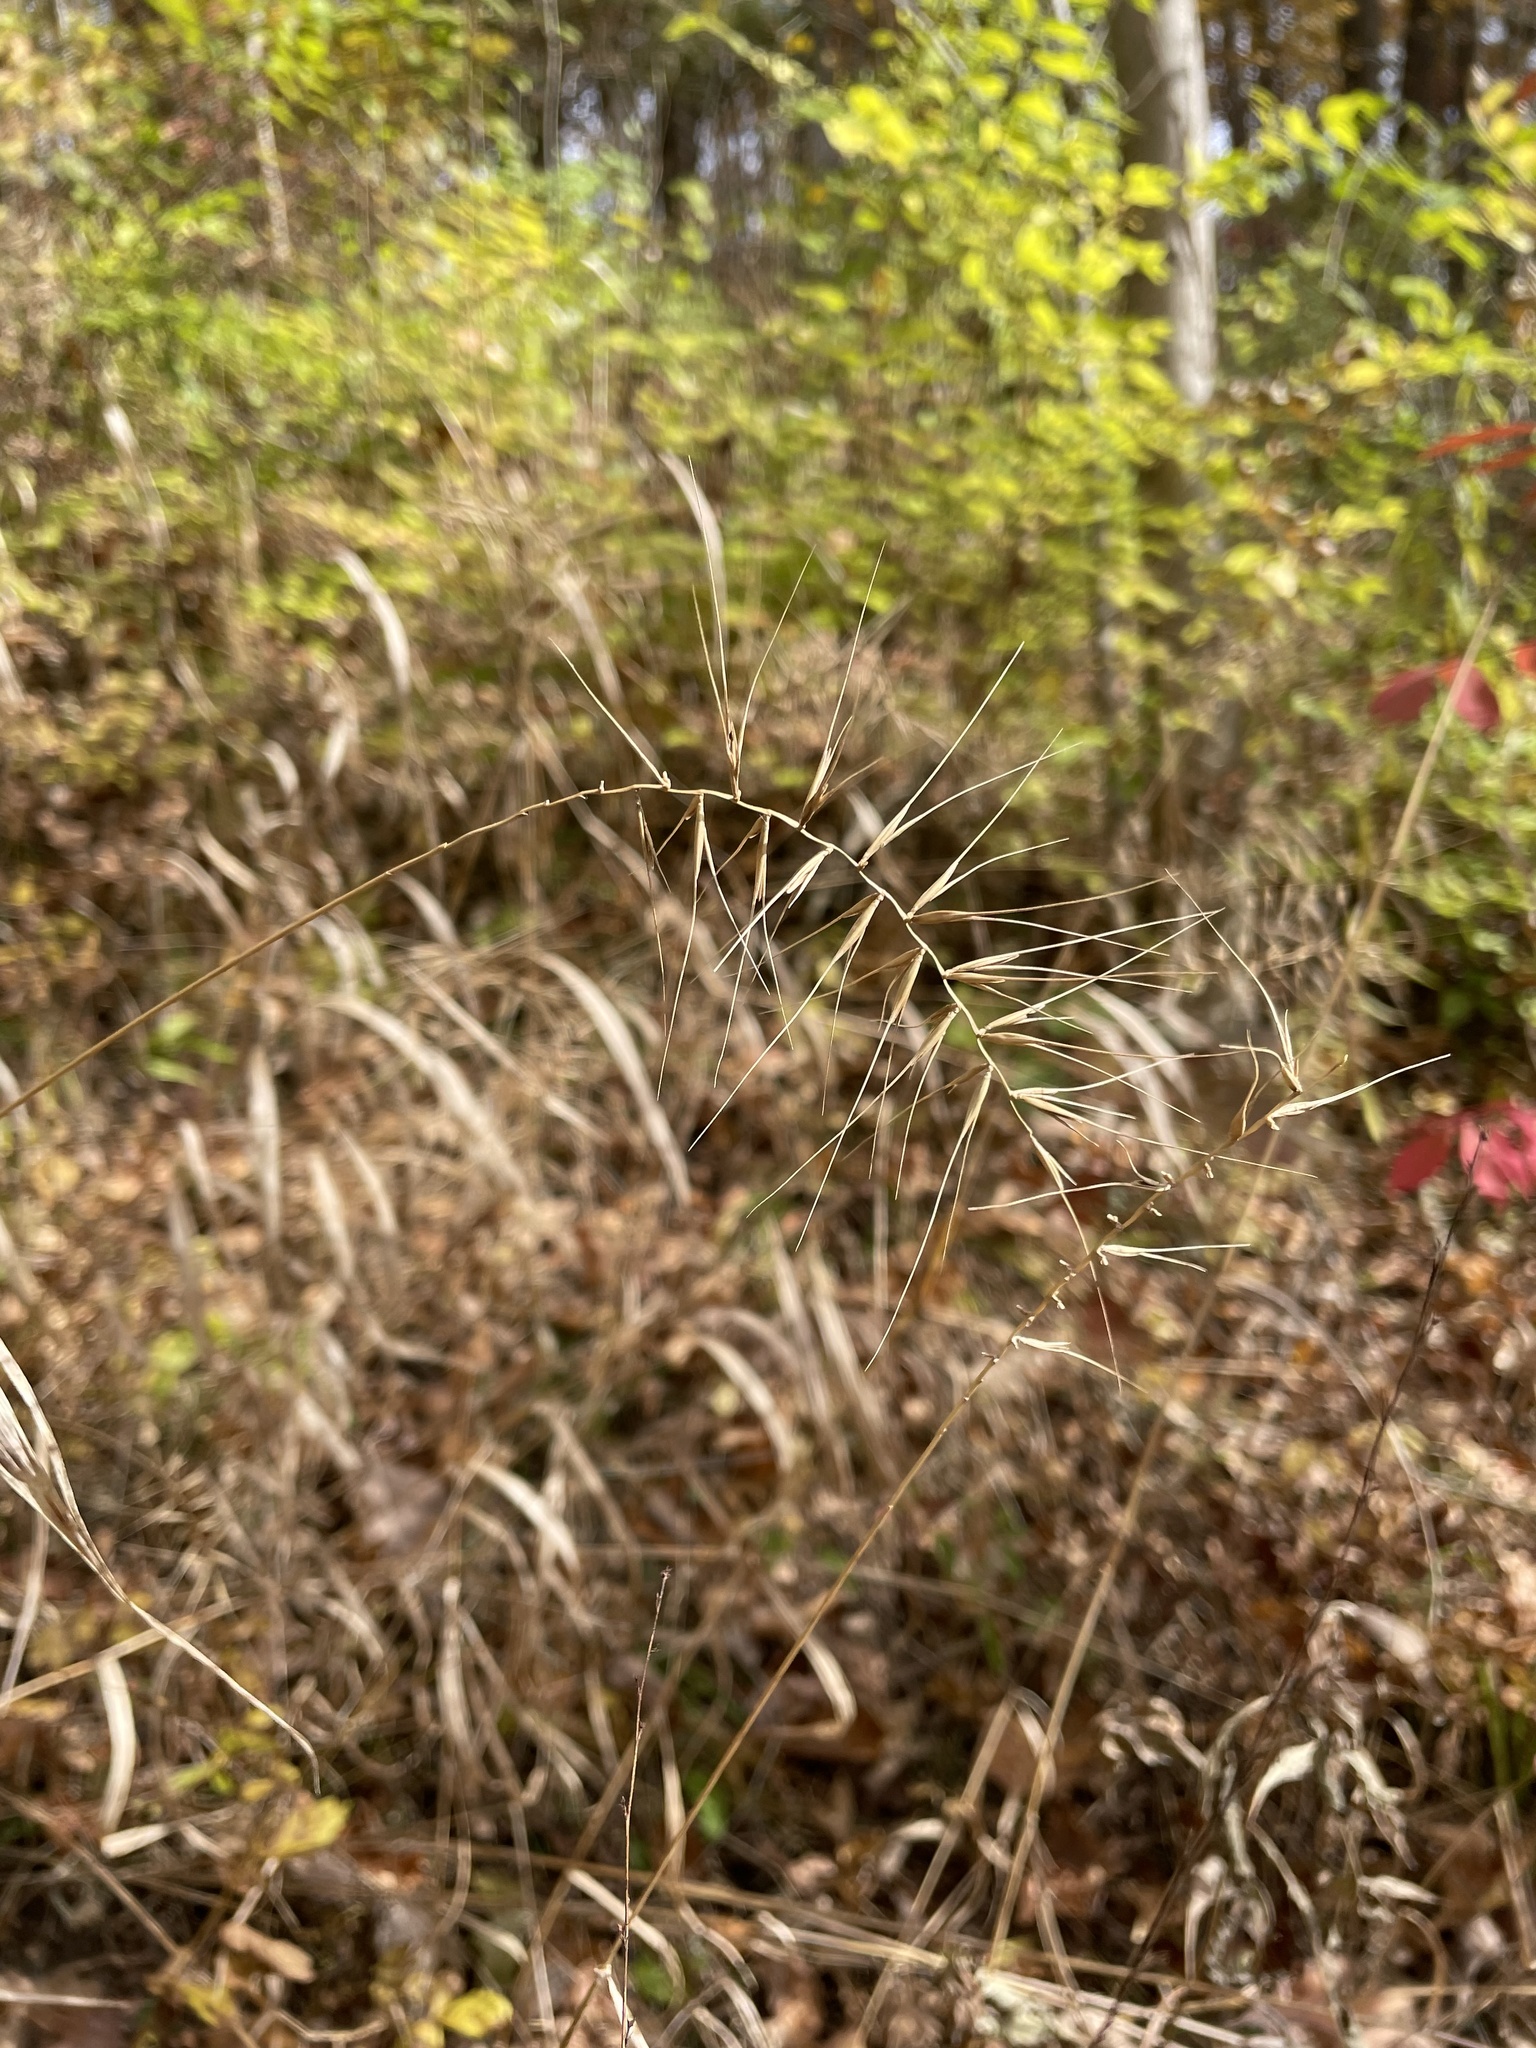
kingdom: Plantae
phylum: Tracheophyta
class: Liliopsida
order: Poales
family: Poaceae
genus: Elymus
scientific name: Elymus hystrix
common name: Bottlebrush grass
